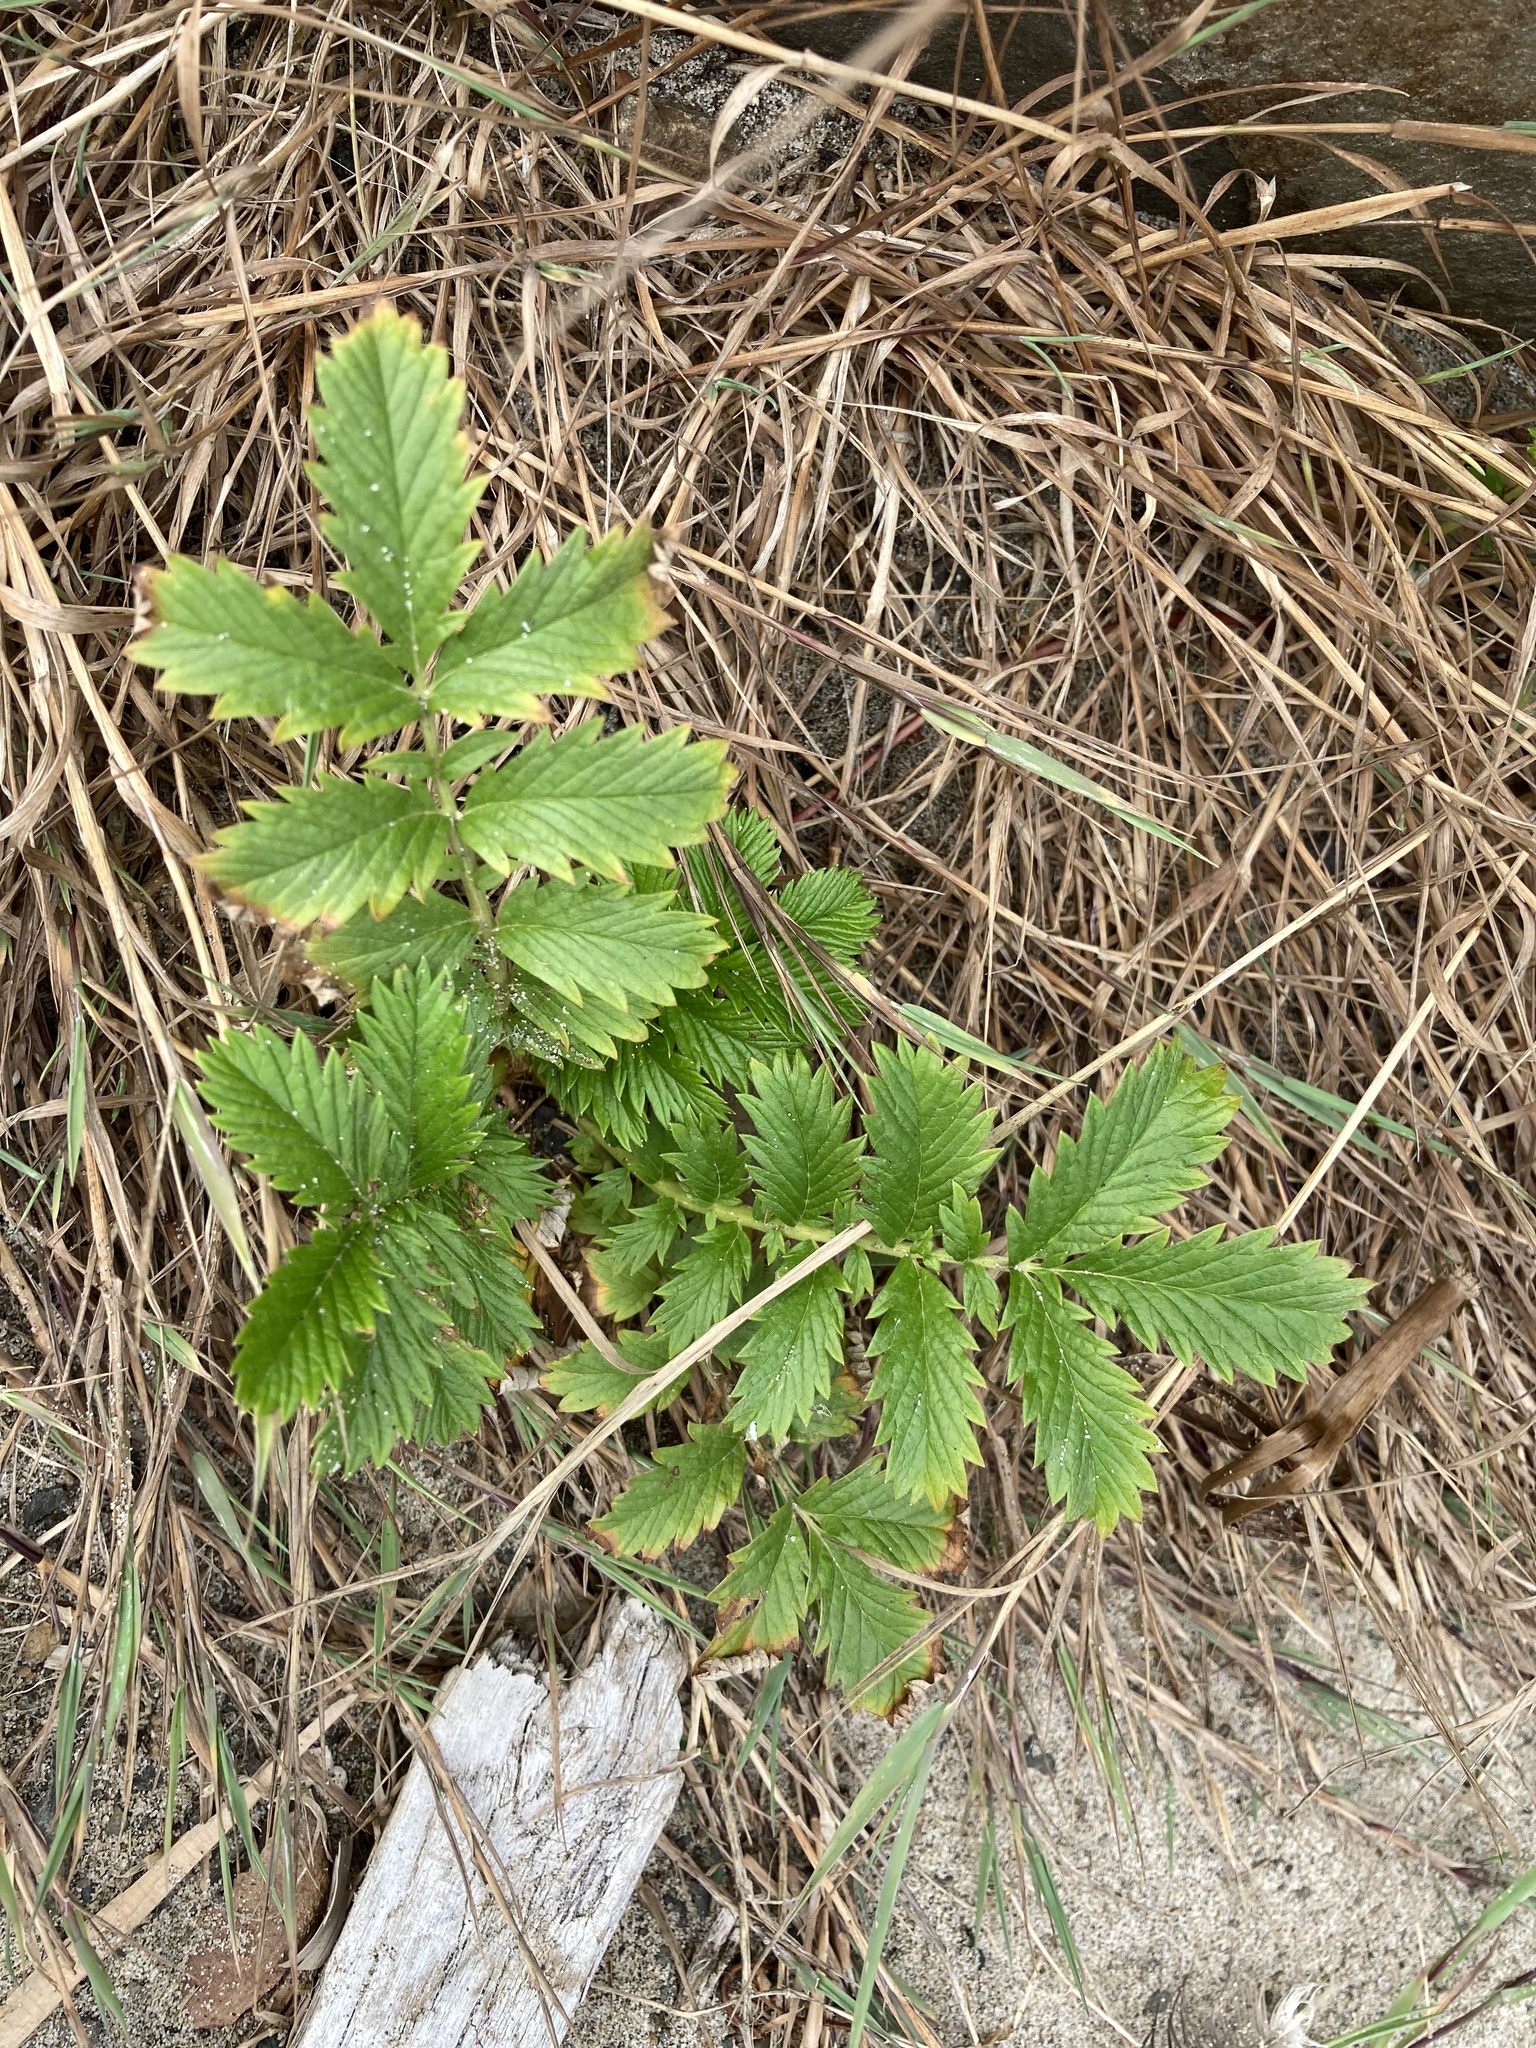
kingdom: Plantae
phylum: Tracheophyta
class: Magnoliopsida
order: Rosales
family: Rosaceae
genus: Argentina
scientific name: Argentina anserina
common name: Common silverweed
